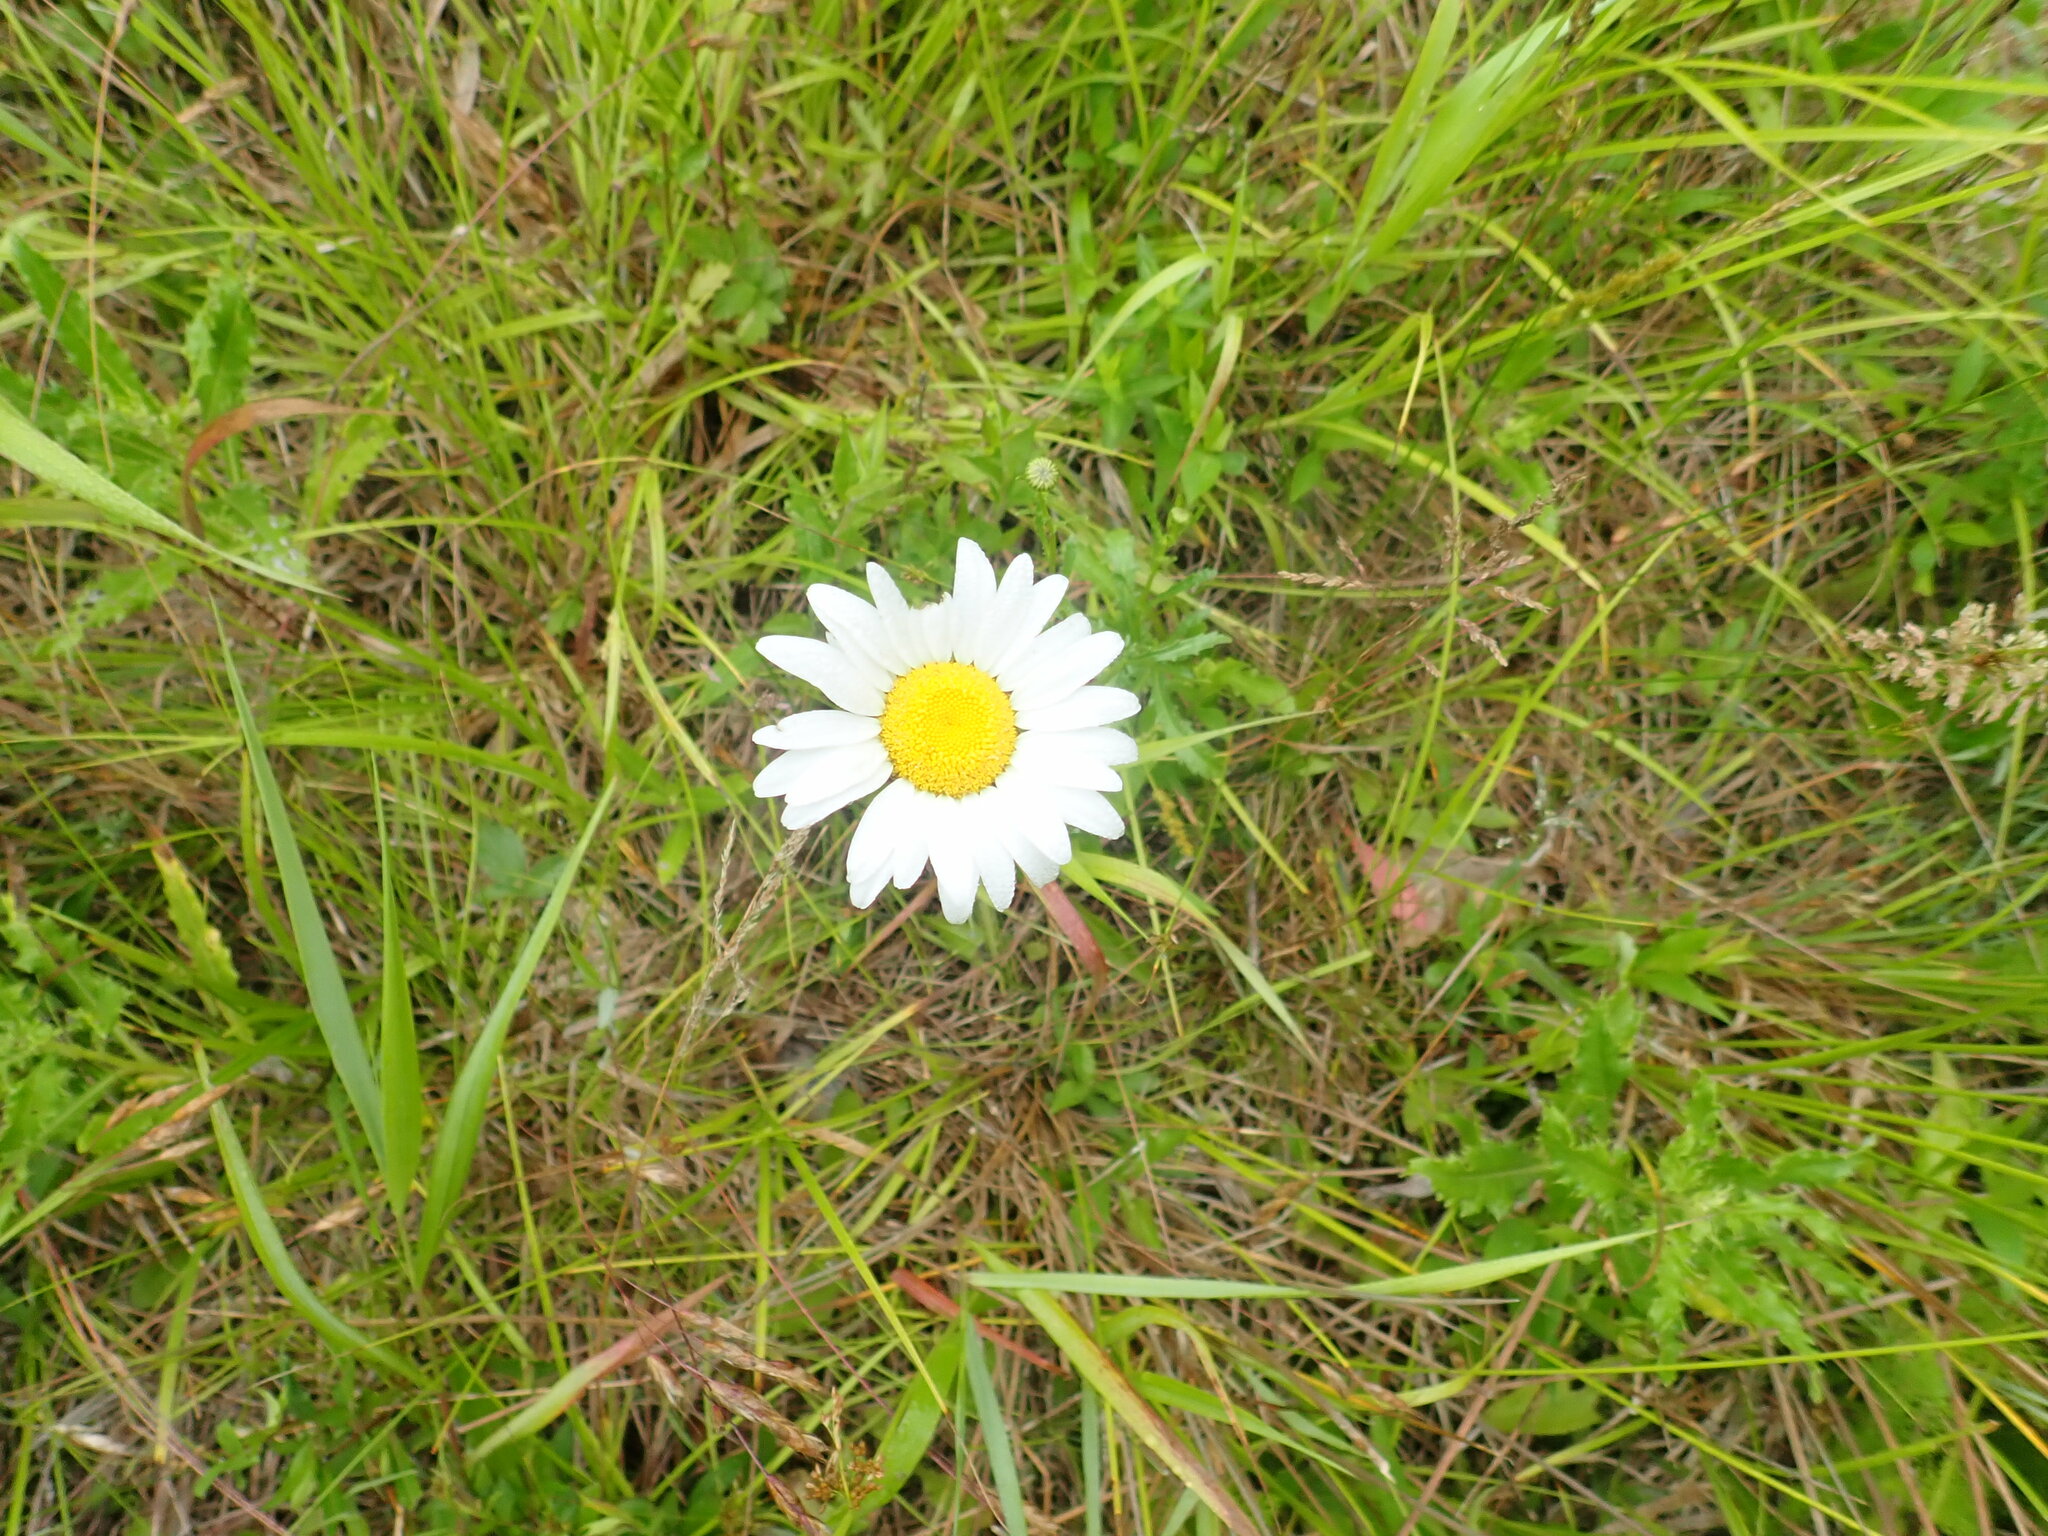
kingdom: Plantae
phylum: Tracheophyta
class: Magnoliopsida
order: Asterales
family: Asteraceae
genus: Leucanthemum
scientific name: Leucanthemum vulgare
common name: Oxeye daisy
